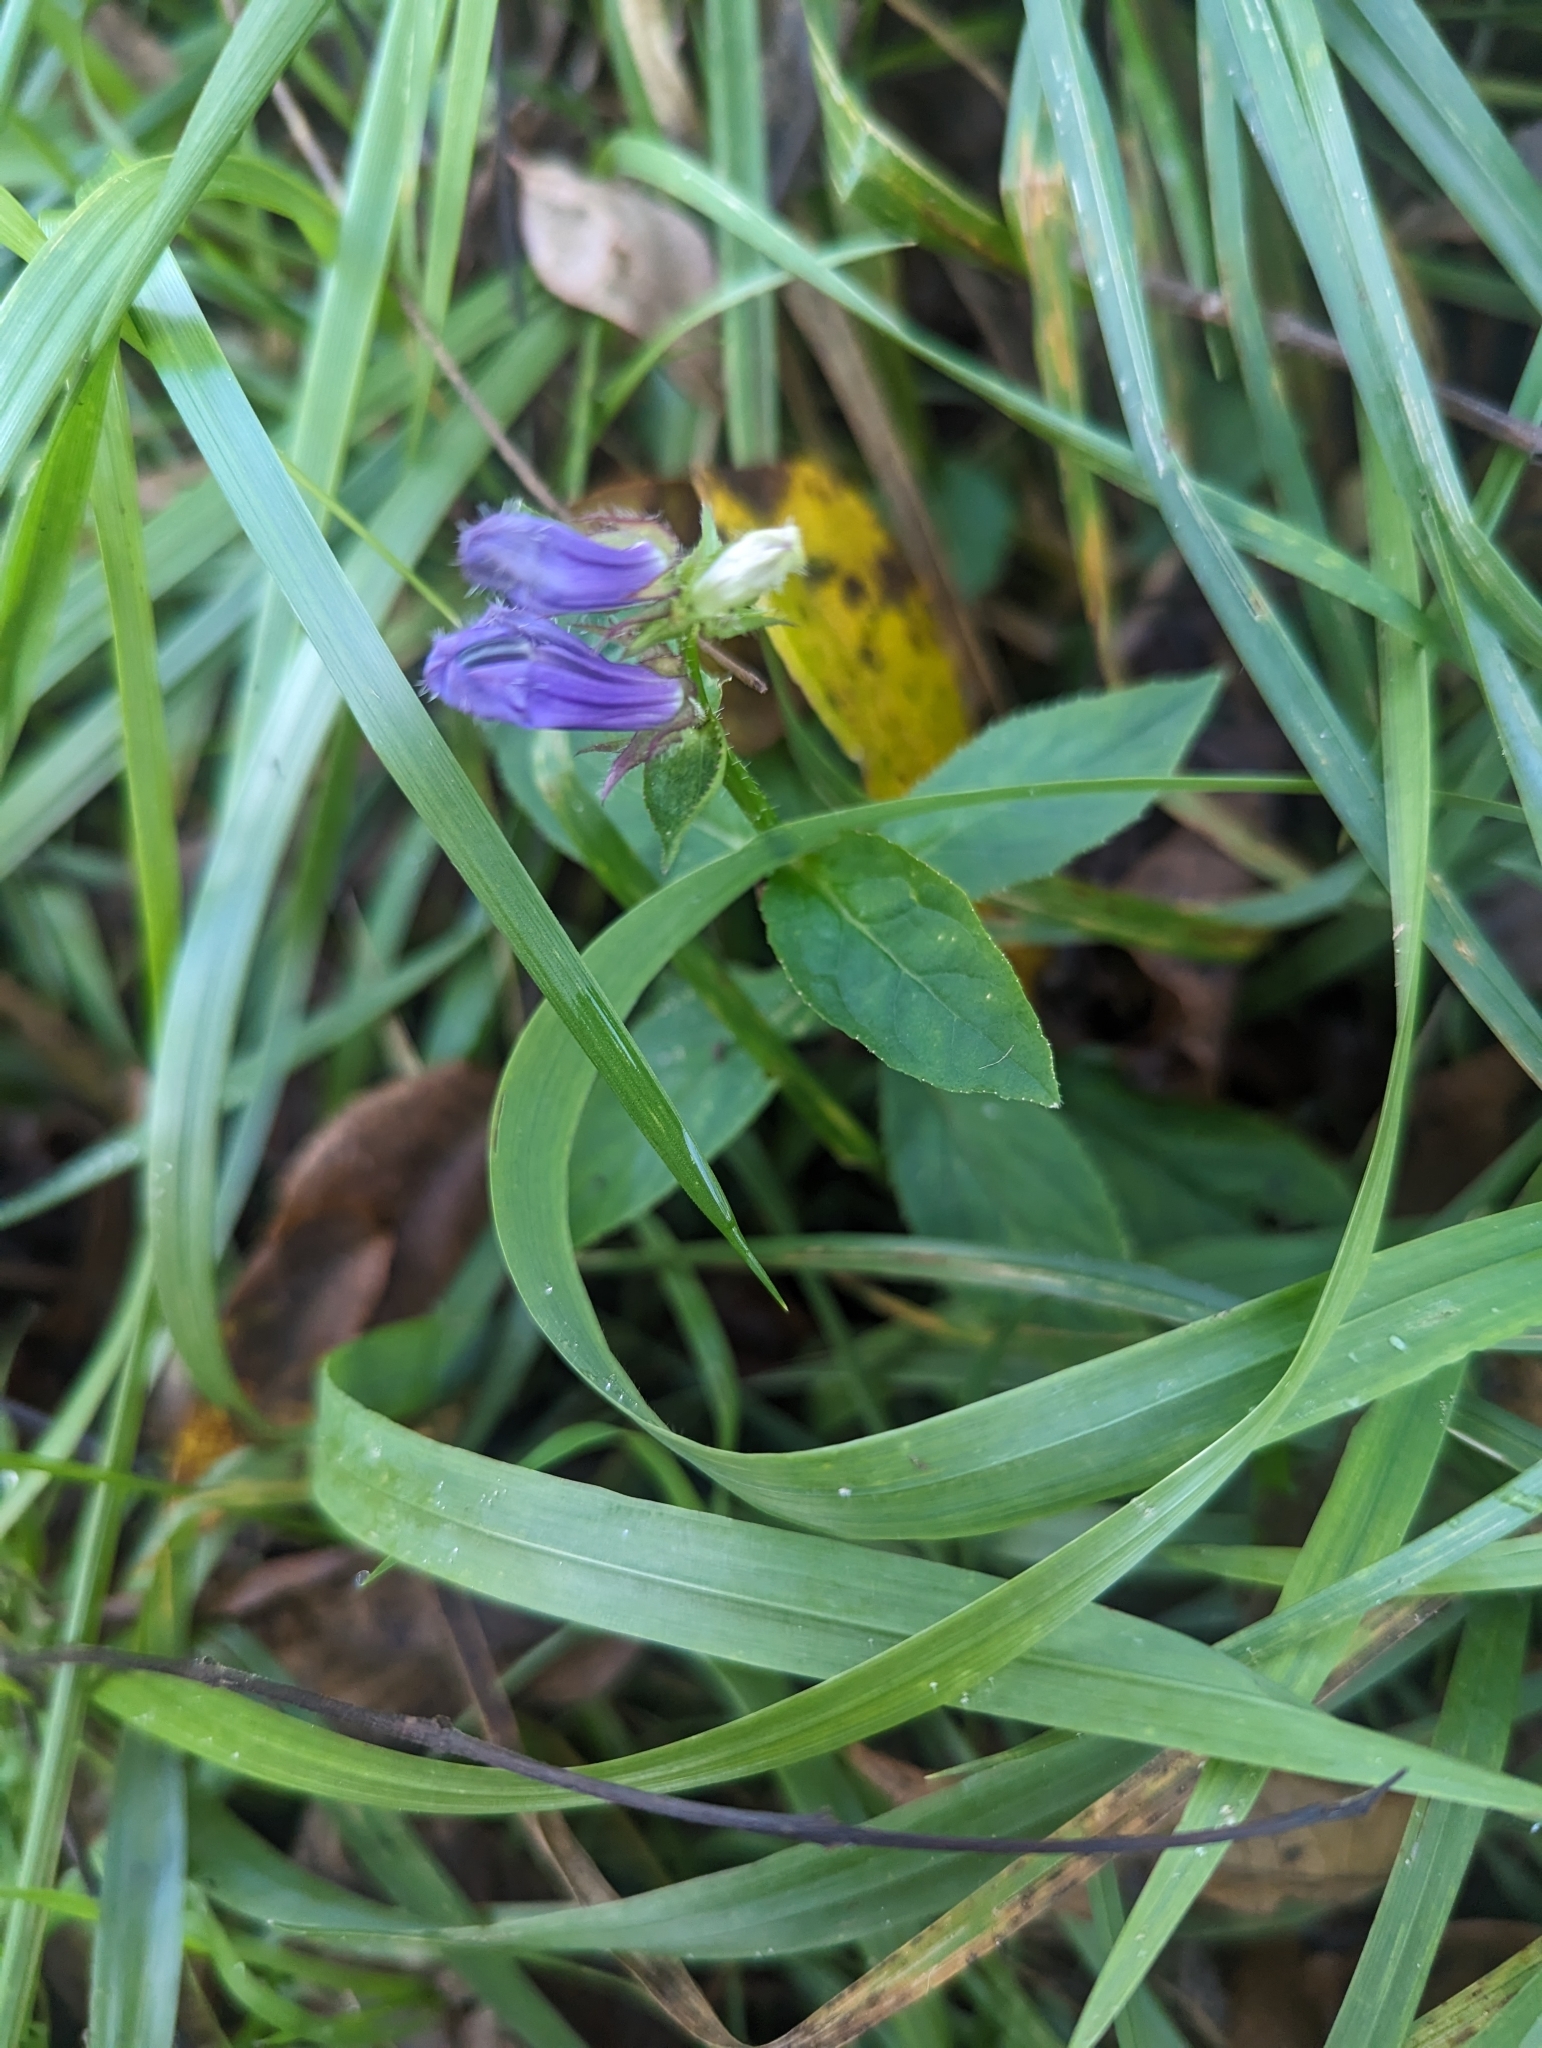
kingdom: Plantae
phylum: Tracheophyta
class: Magnoliopsida
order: Asterales
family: Campanulaceae
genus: Lobelia
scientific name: Lobelia siphilitica
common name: Great lobelia
